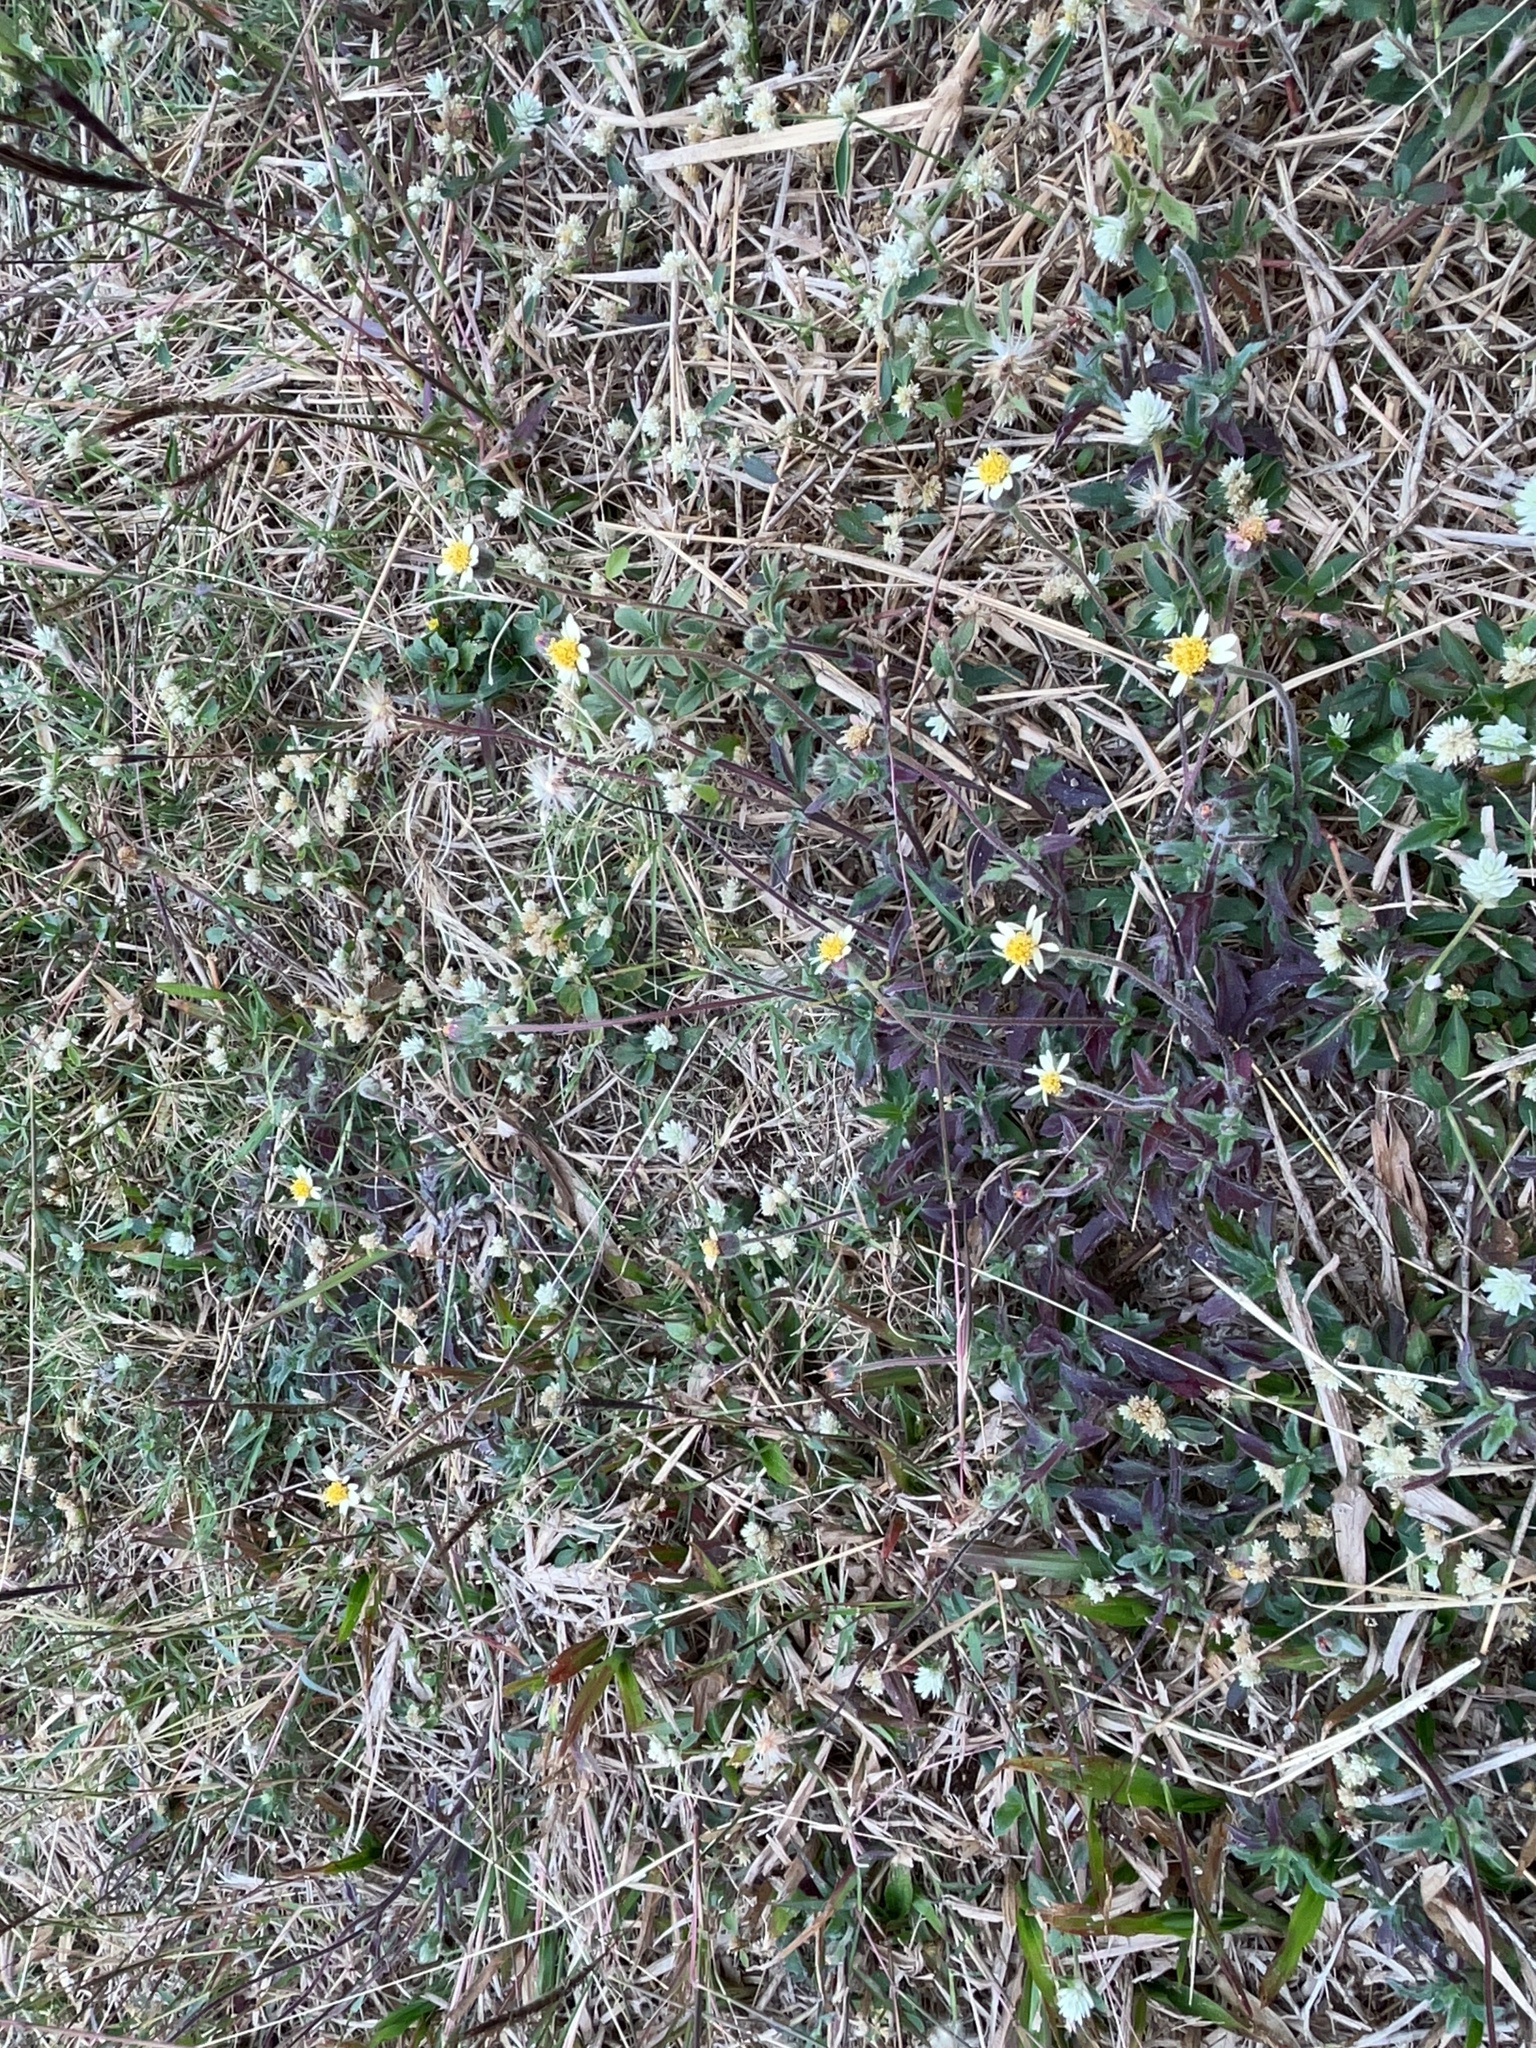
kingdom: Plantae
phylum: Tracheophyta
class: Magnoliopsida
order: Asterales
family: Asteraceae
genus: Tridax
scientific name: Tridax procumbens
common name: Coatbuttons
